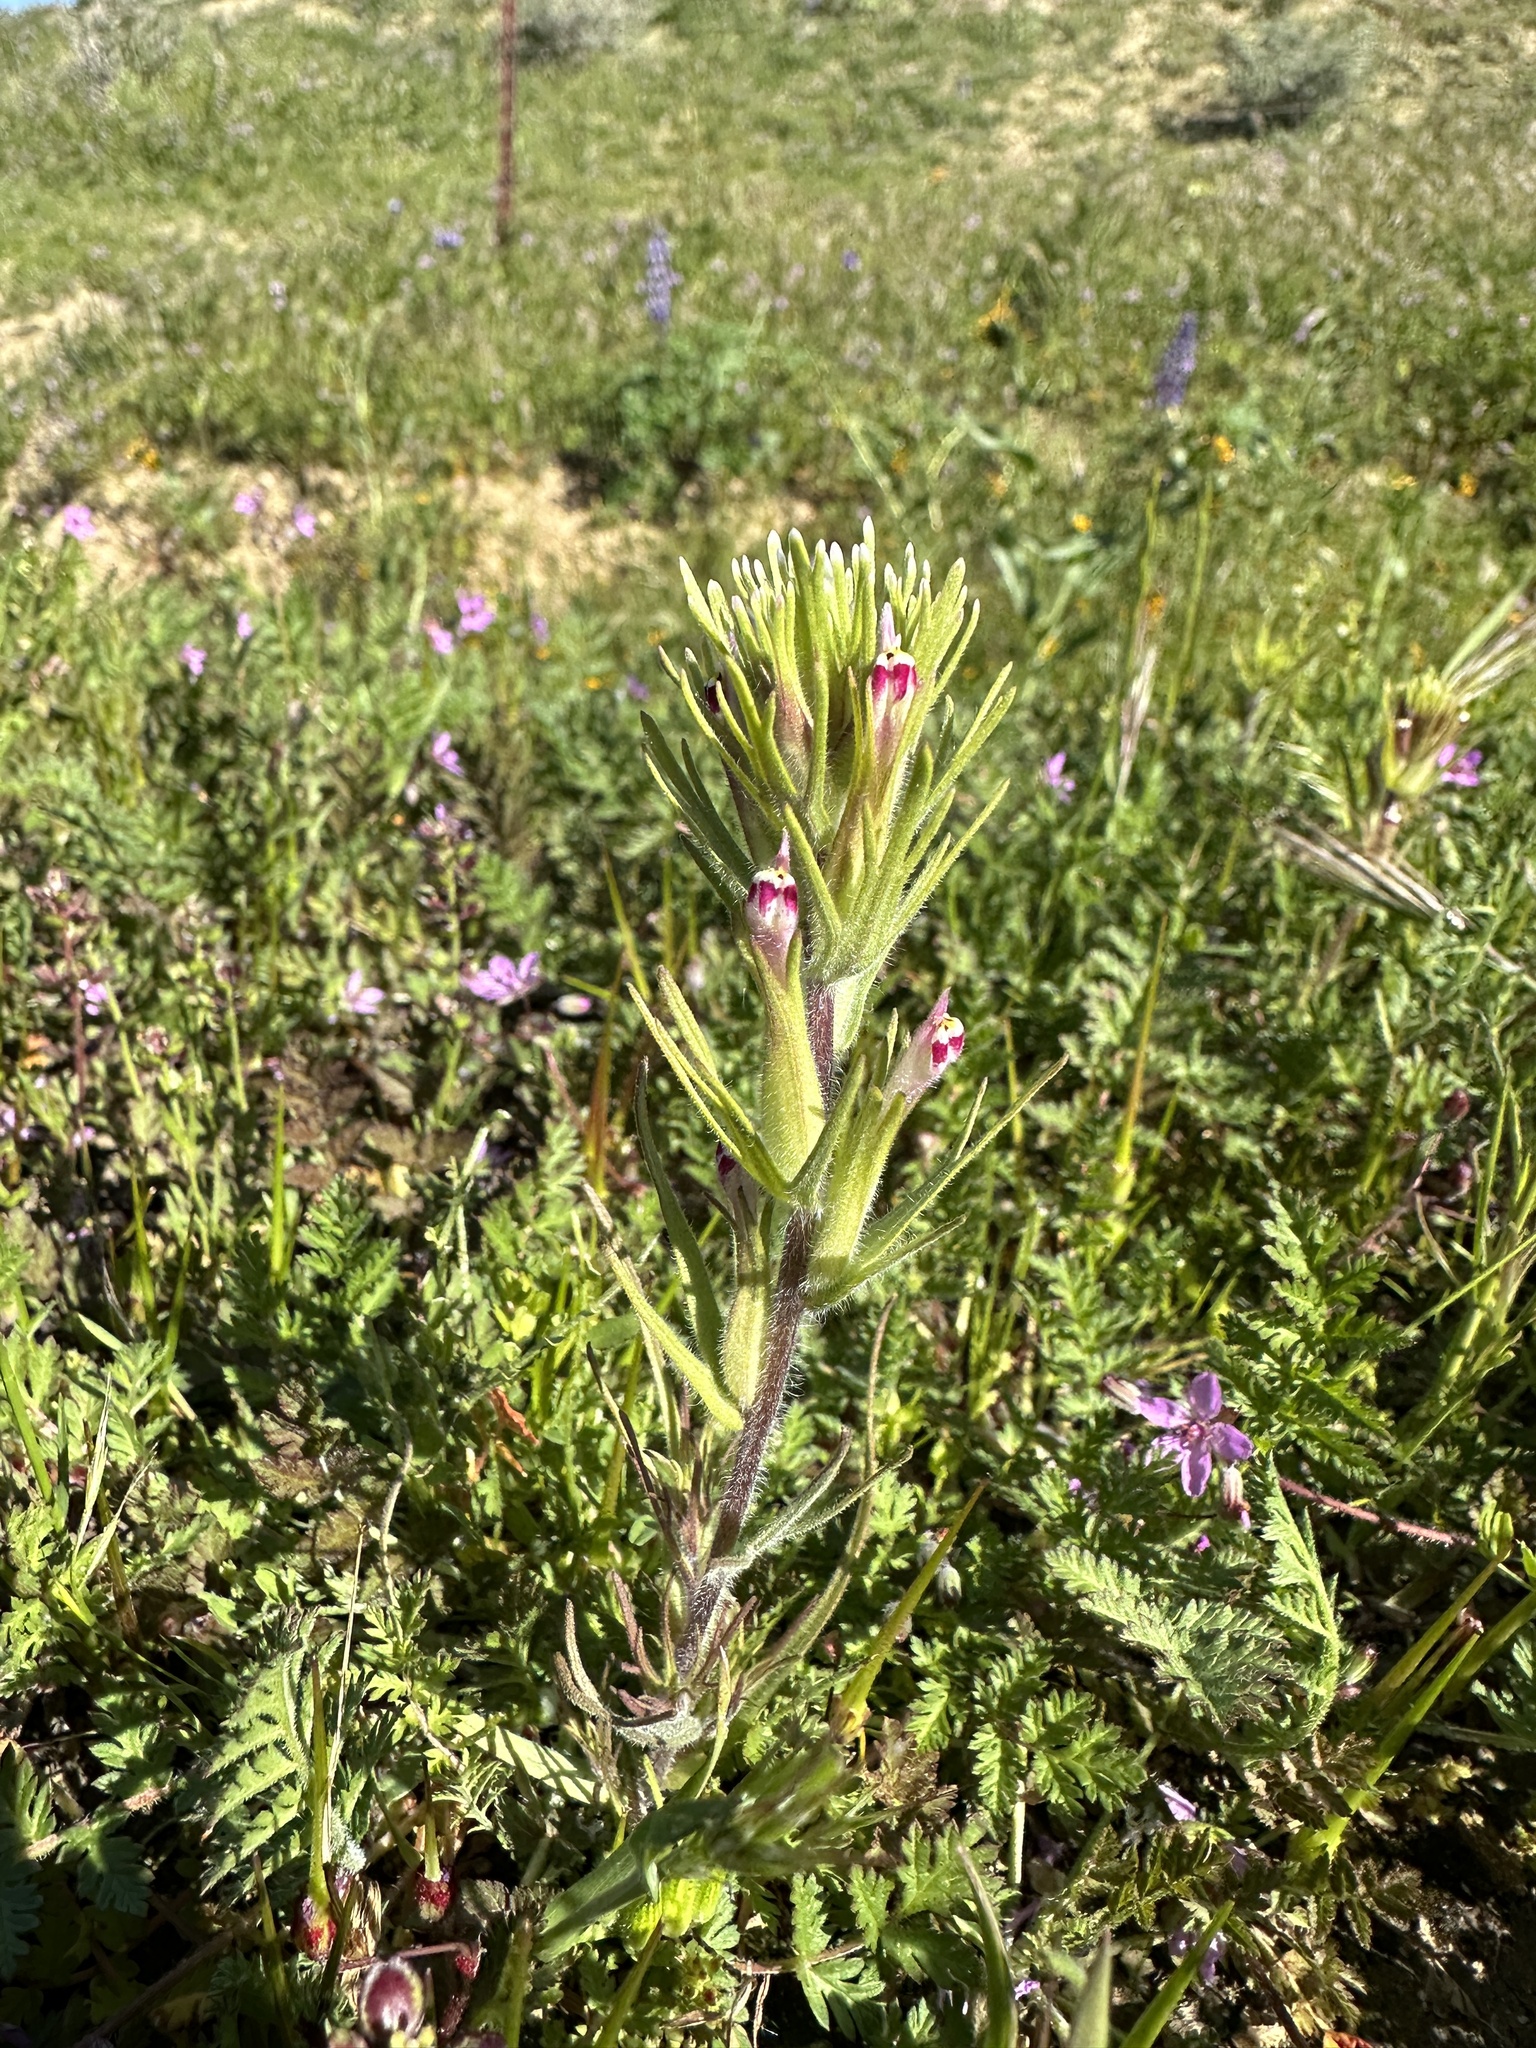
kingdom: Plantae
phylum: Tracheophyta
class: Magnoliopsida
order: Lamiales
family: Orobanchaceae
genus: Castilleja
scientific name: Castilleja brevistyla
